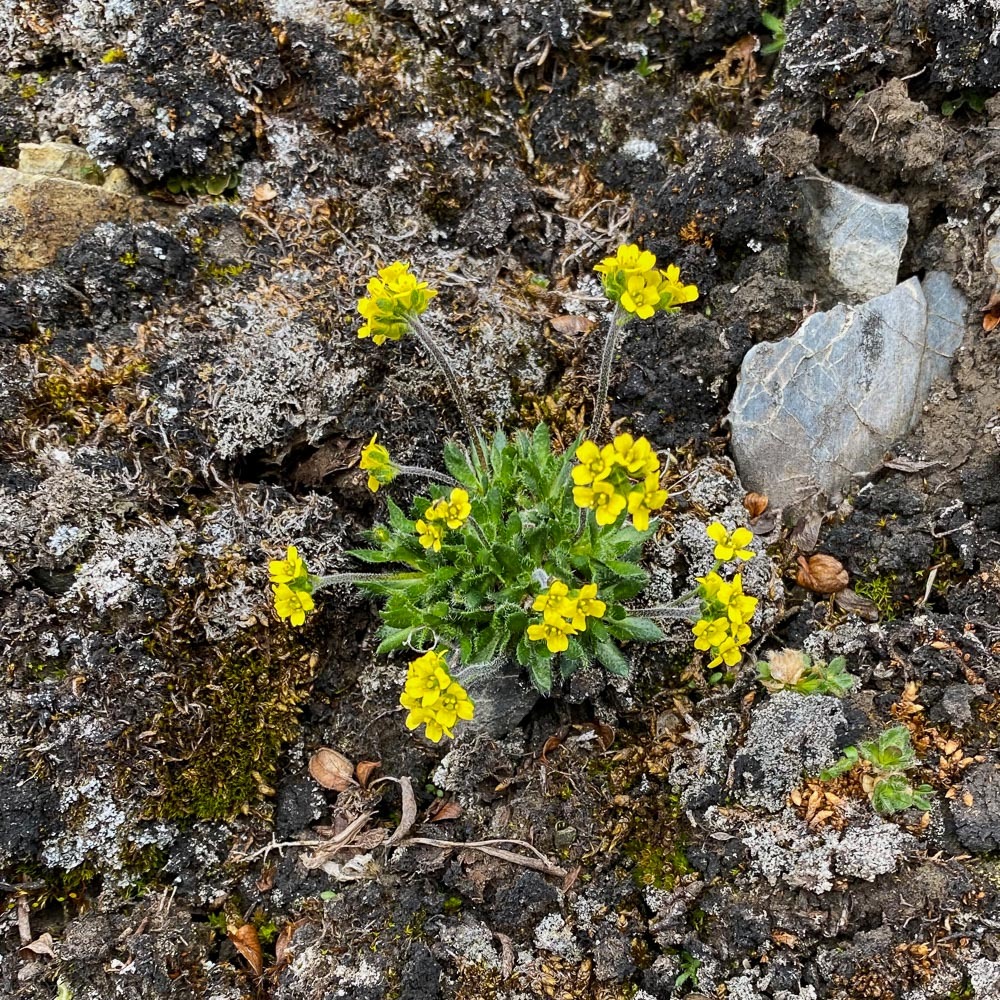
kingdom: Plantae
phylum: Tracheophyta
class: Magnoliopsida
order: Brassicales
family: Brassicaceae
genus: Draba
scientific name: Draba corymbosa
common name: Cushion whitlow-grass
